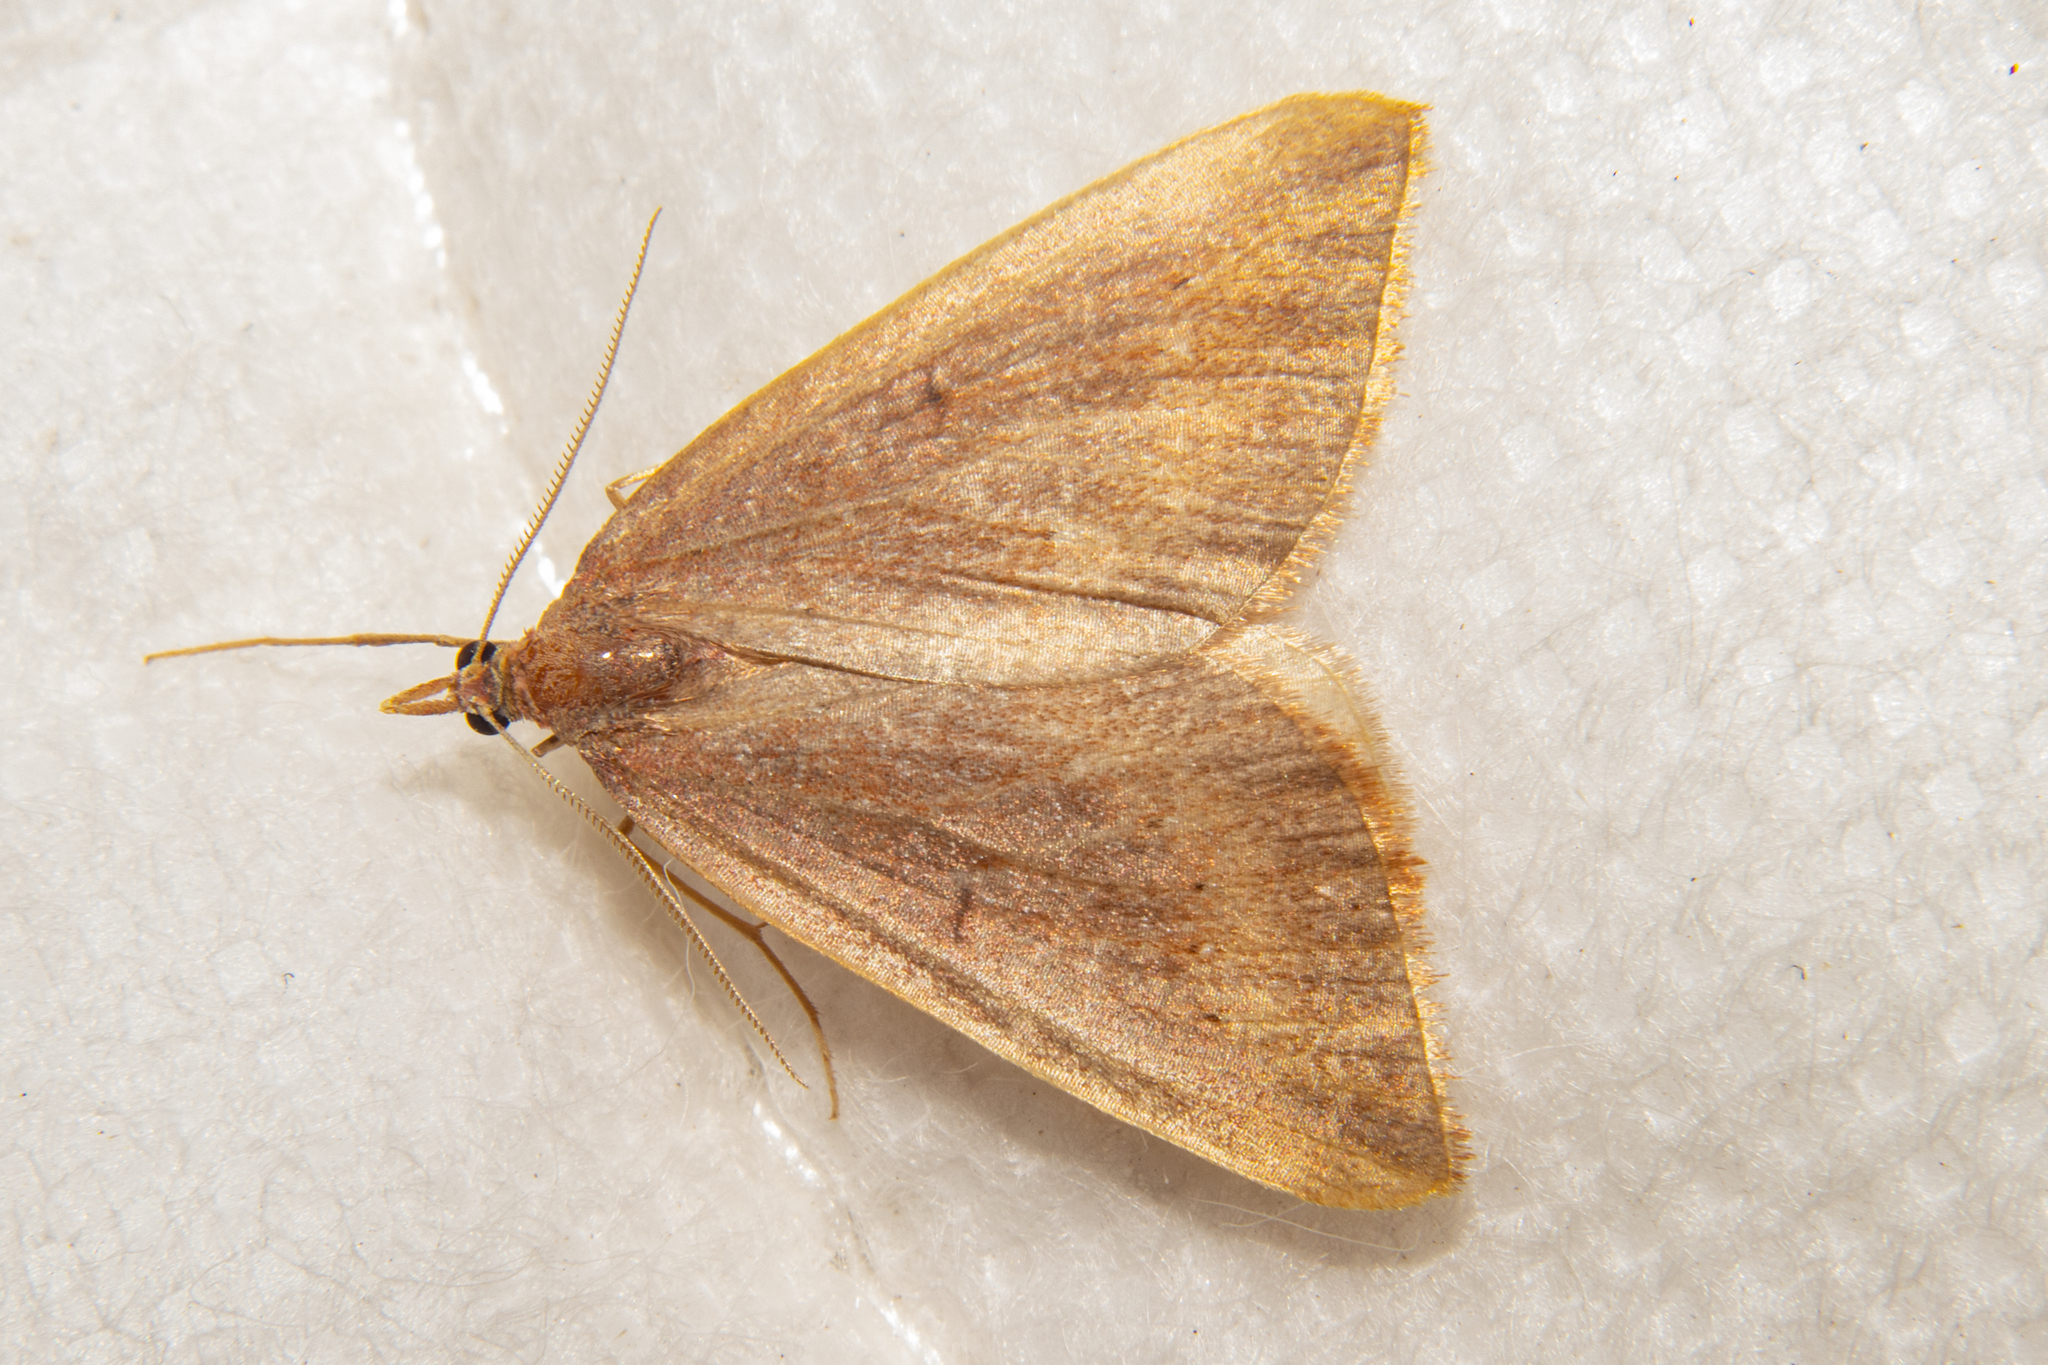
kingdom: Animalia
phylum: Arthropoda
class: Insecta
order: Lepidoptera
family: Geometridae
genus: Xanthorhoe
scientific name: Xanthorhoe occulta
